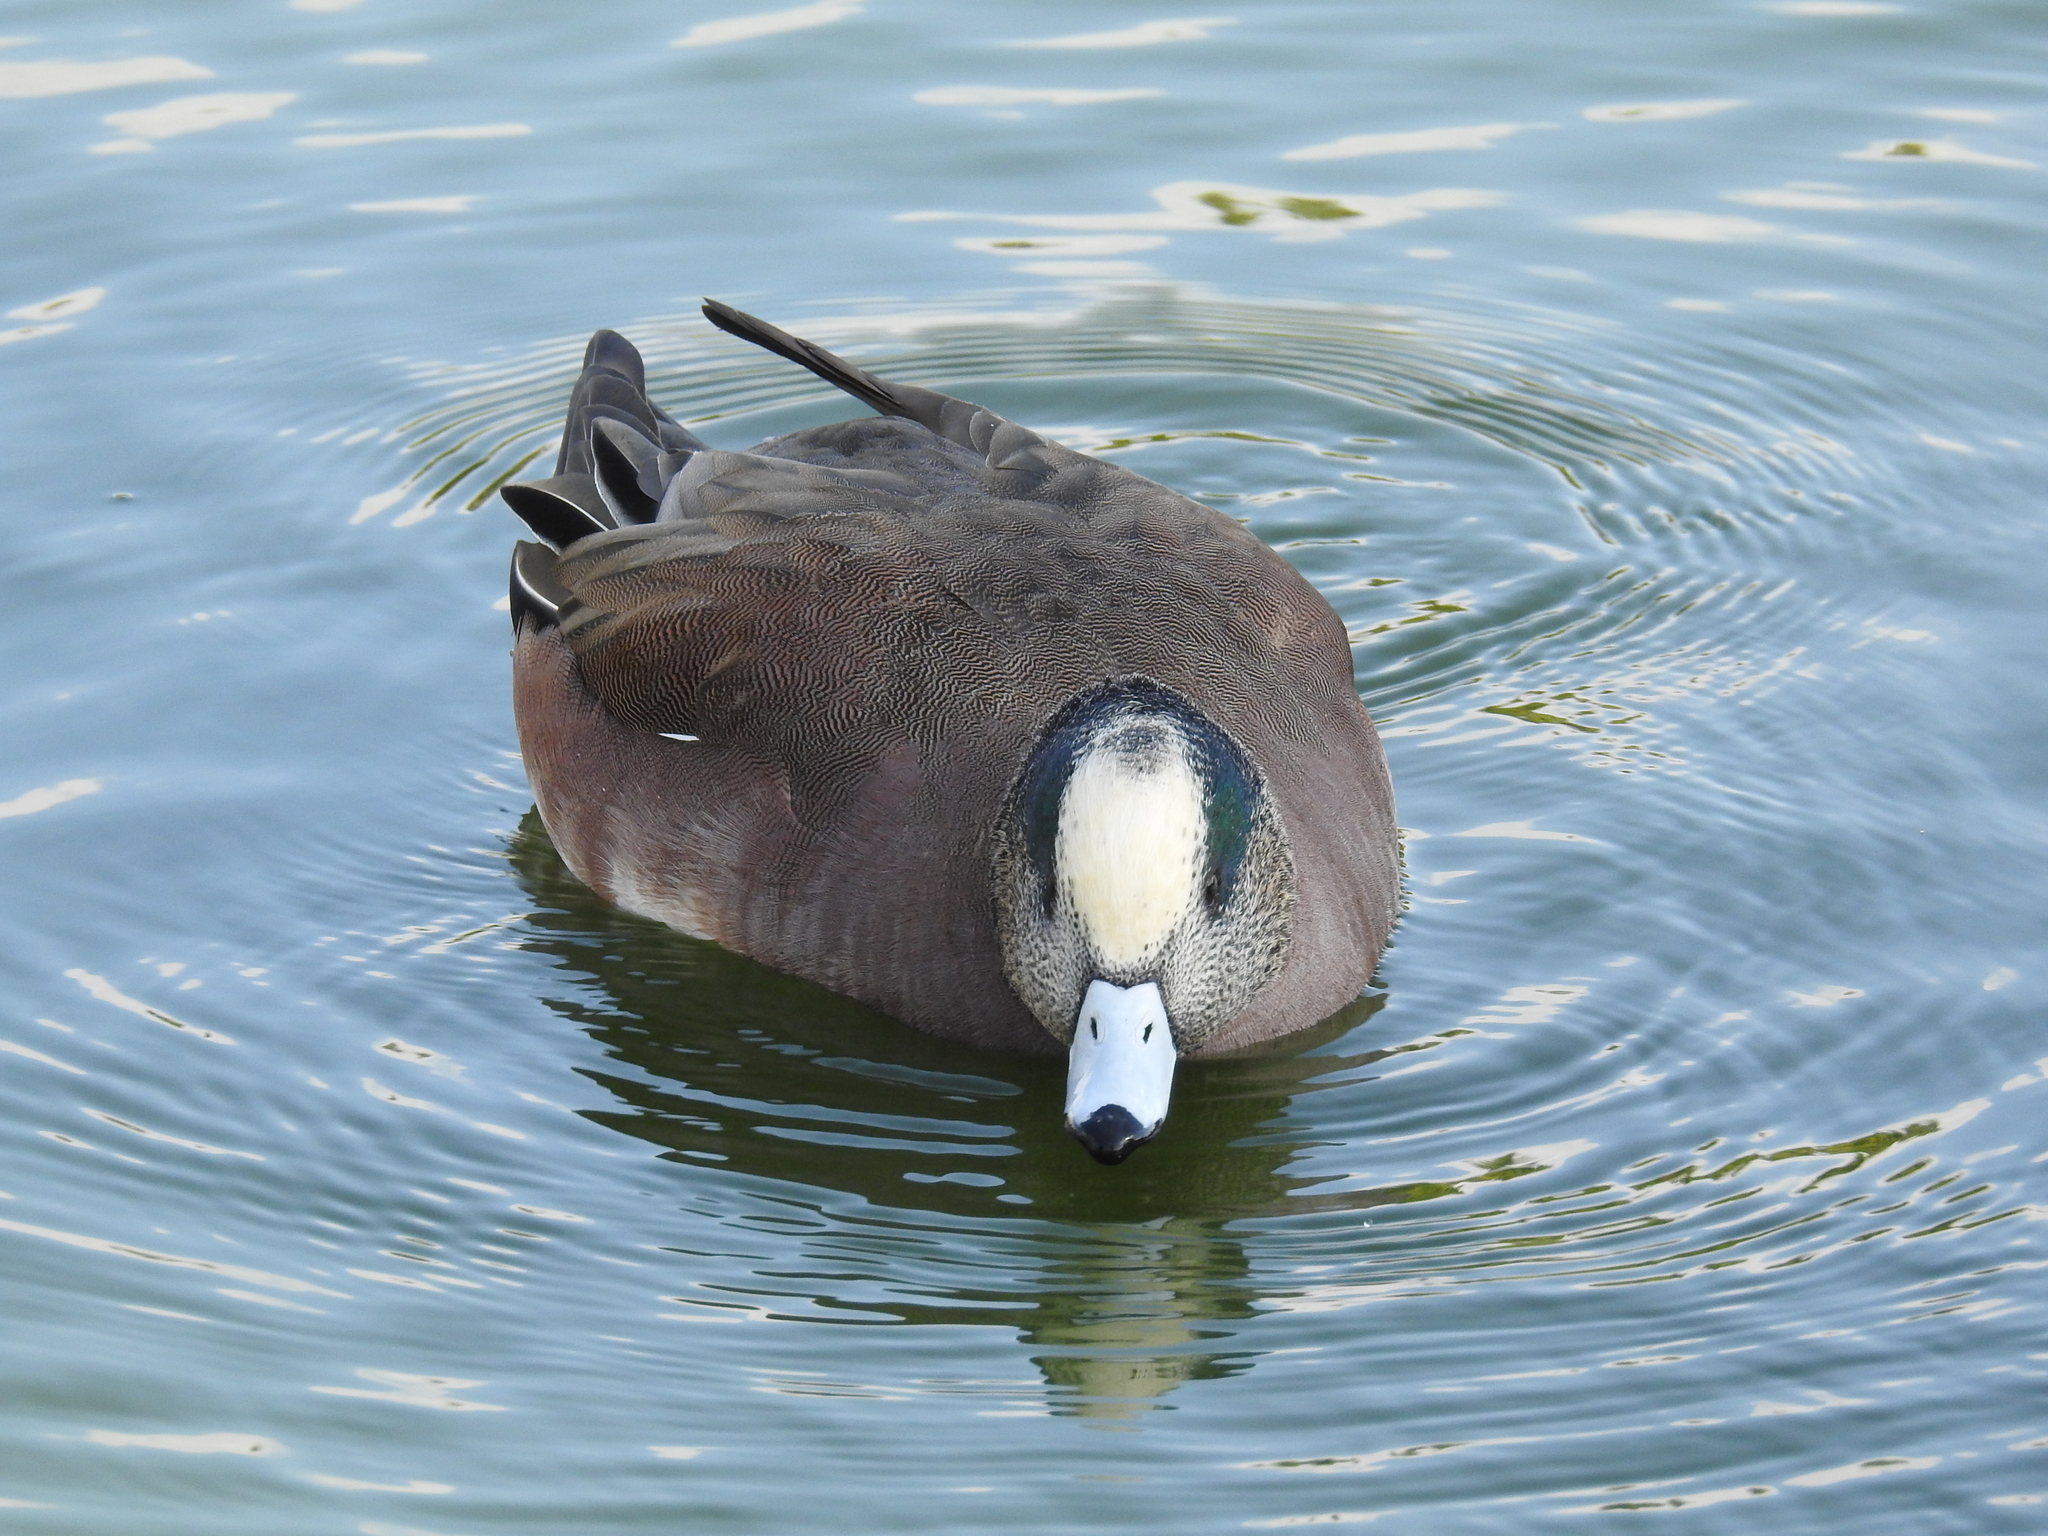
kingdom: Animalia
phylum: Chordata
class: Aves
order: Anseriformes
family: Anatidae
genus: Mareca
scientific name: Mareca americana
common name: American wigeon
